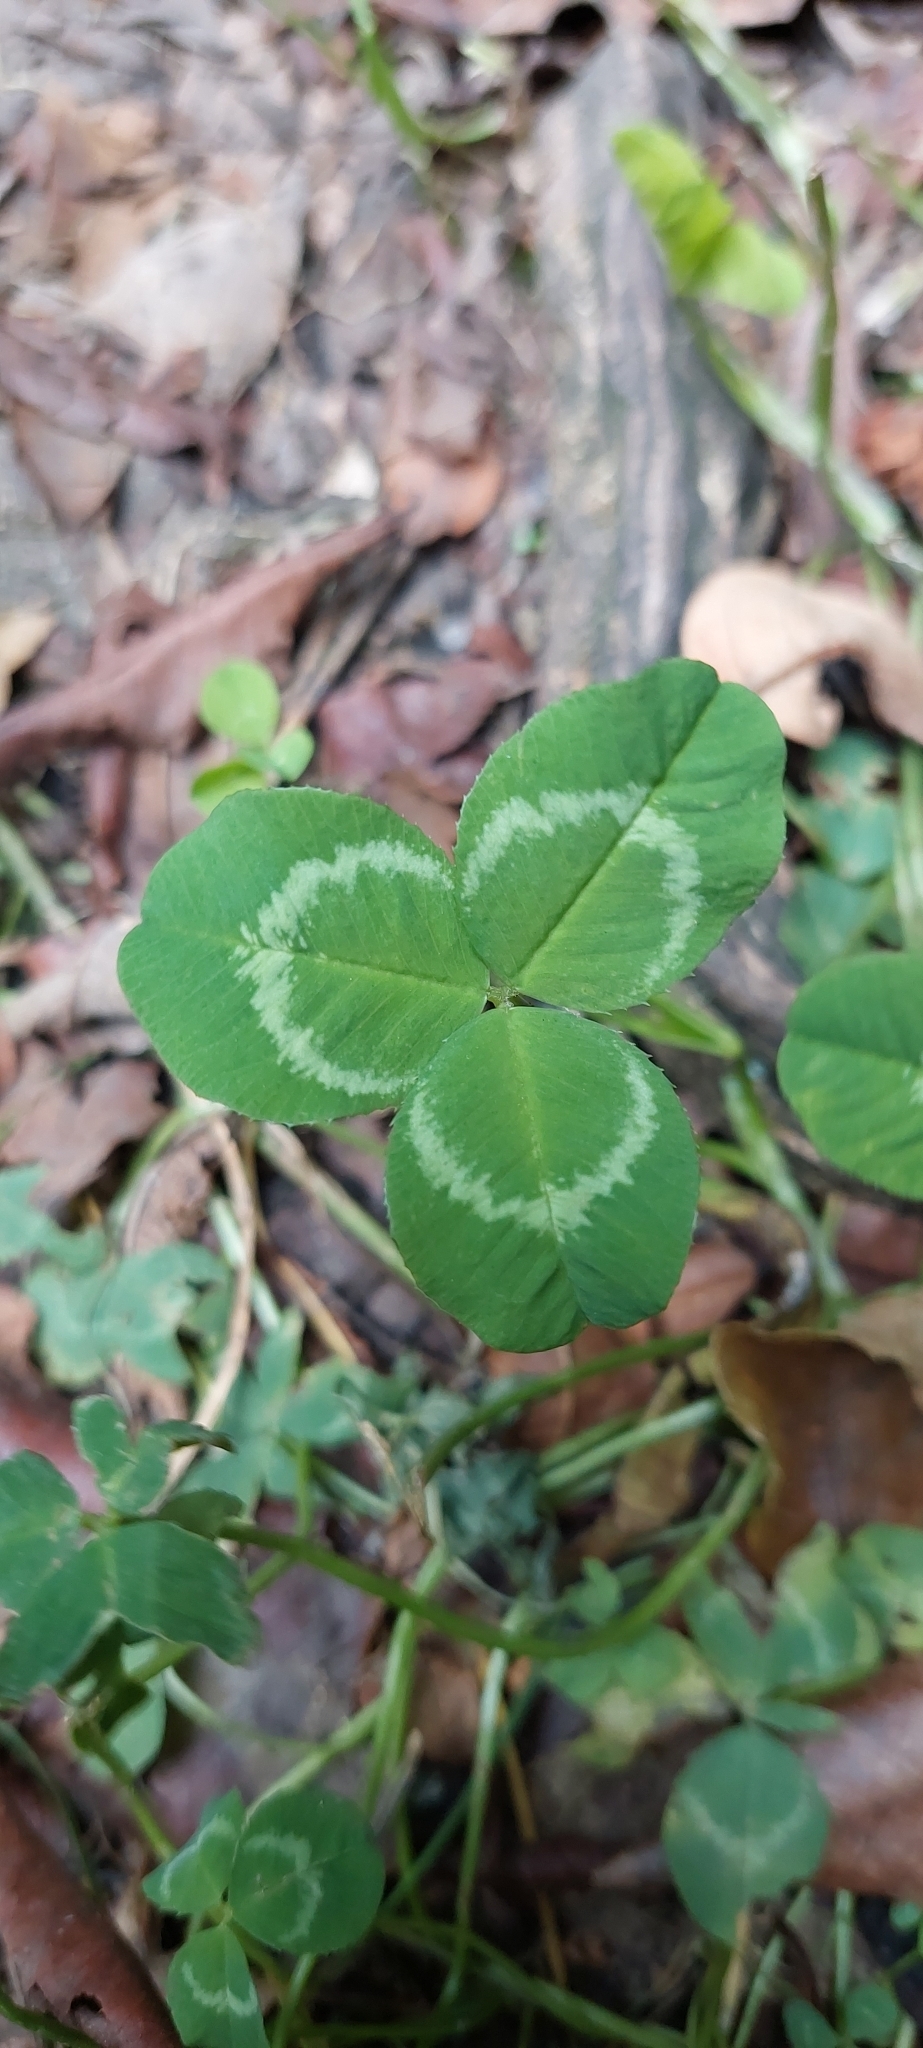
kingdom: Plantae
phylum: Tracheophyta
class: Magnoliopsida
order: Fabales
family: Fabaceae
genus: Trifolium
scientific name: Trifolium repens
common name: White clover
